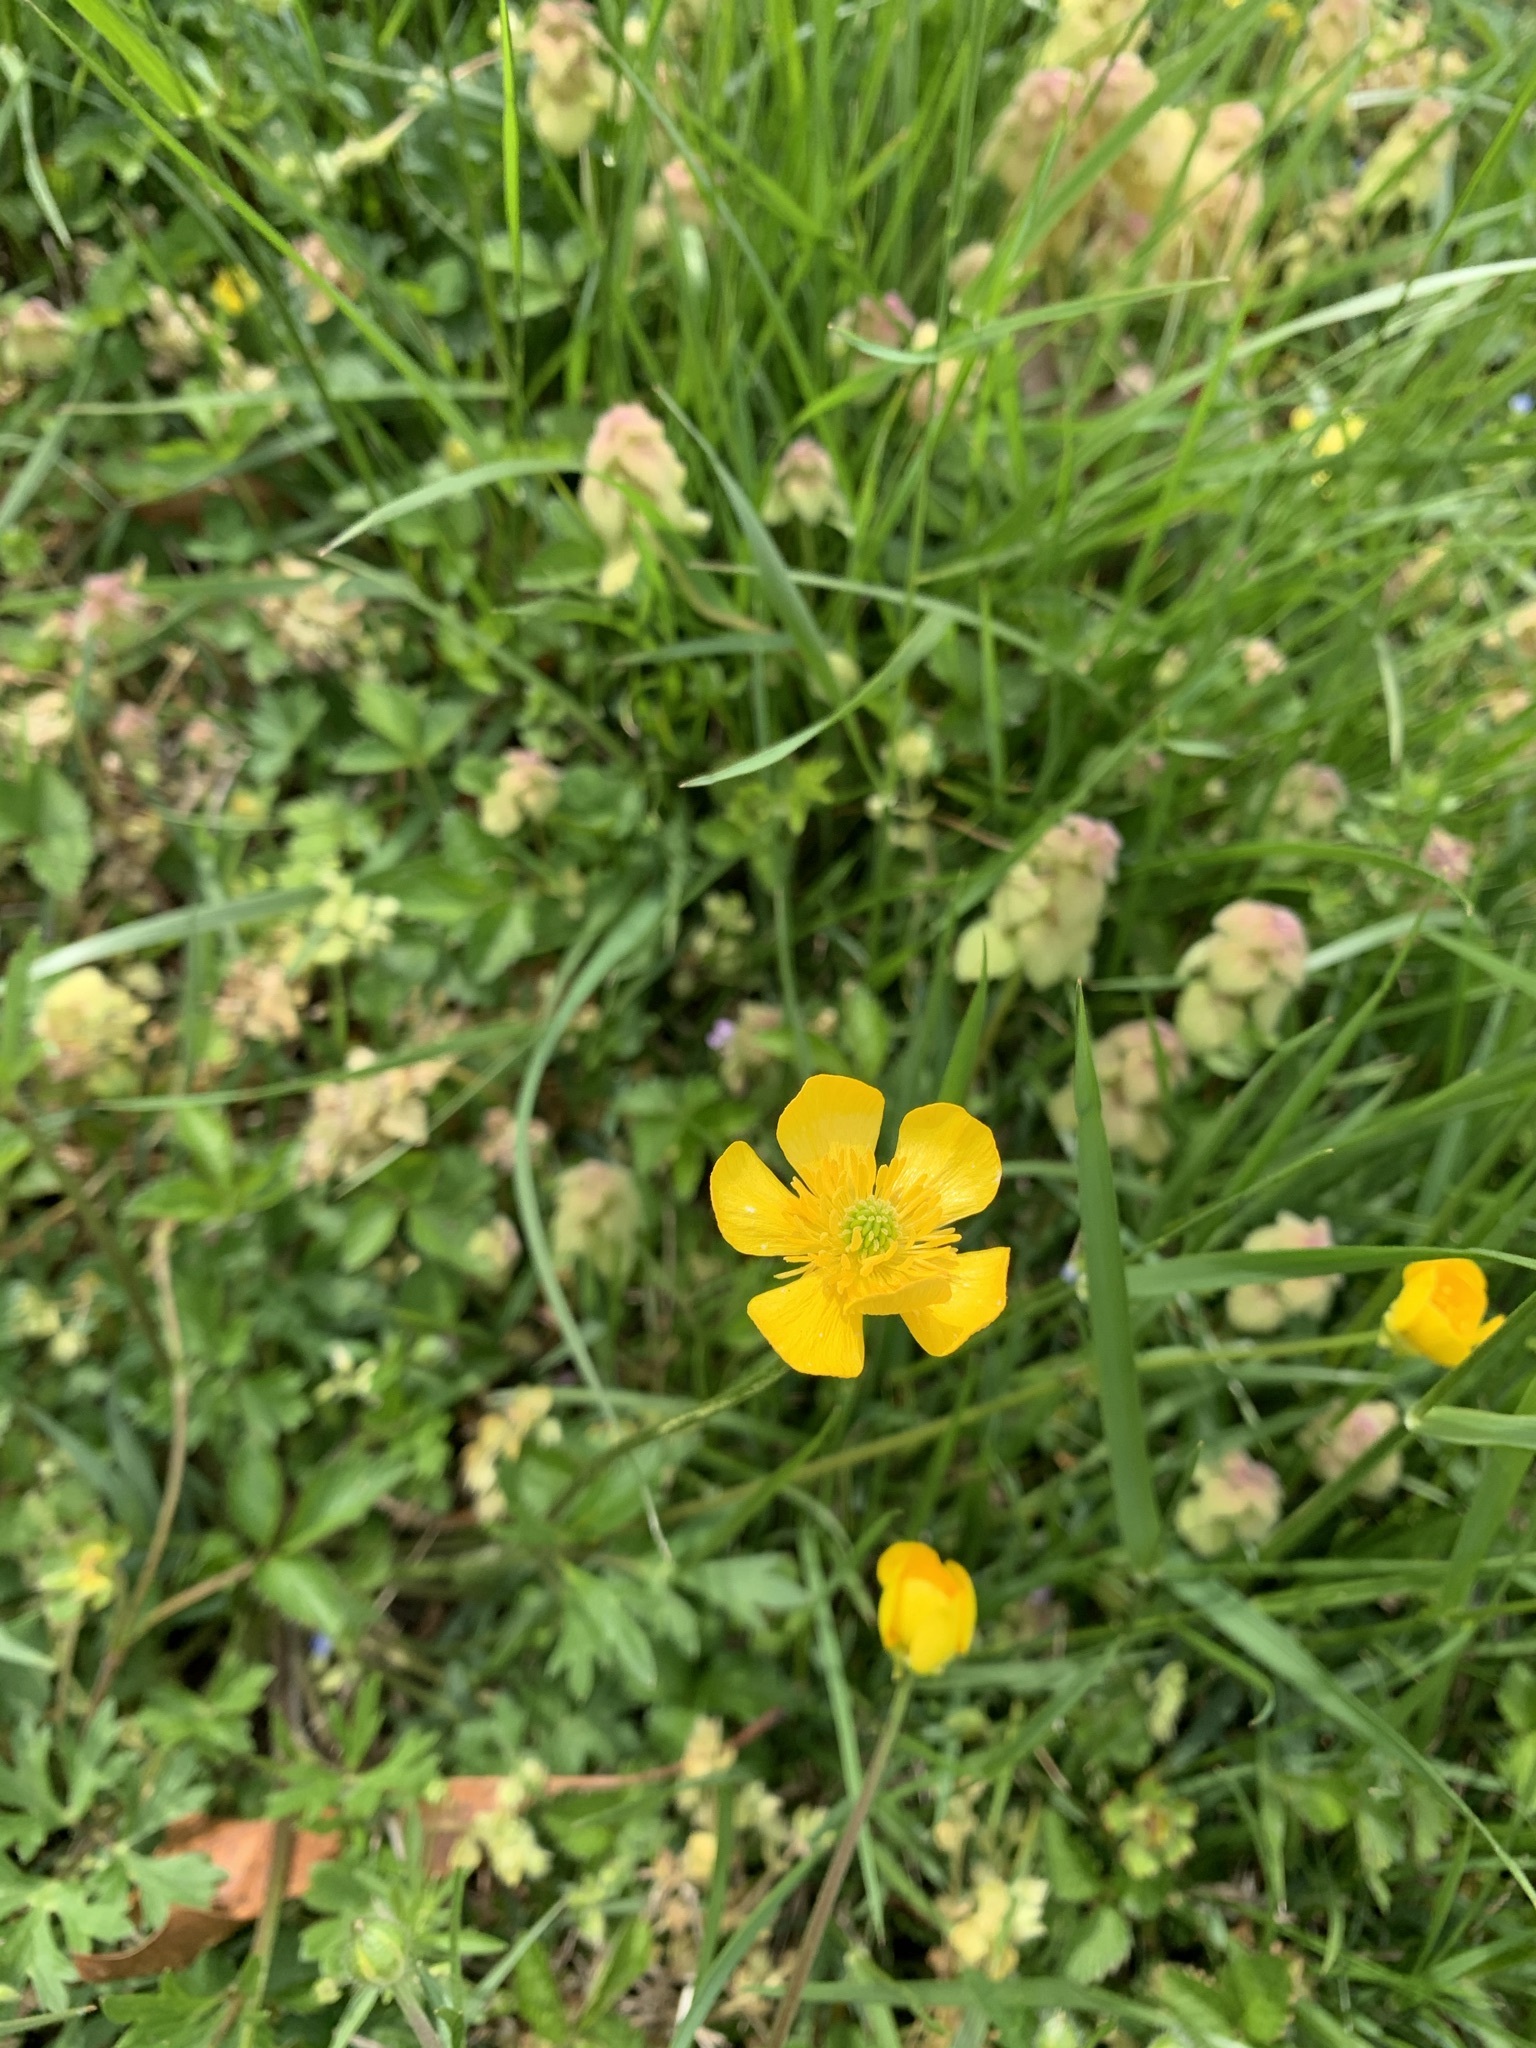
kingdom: Plantae
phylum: Tracheophyta
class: Magnoliopsida
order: Ranunculales
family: Ranunculaceae
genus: Ranunculus
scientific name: Ranunculus bulbosus
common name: Bulbous buttercup
